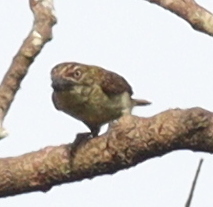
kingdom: Animalia
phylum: Chordata
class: Aves
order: Piciformes
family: Lybiidae
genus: Pogoniulus
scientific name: Pogoniulus scolopaceus
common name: Speckled tinkerbird
